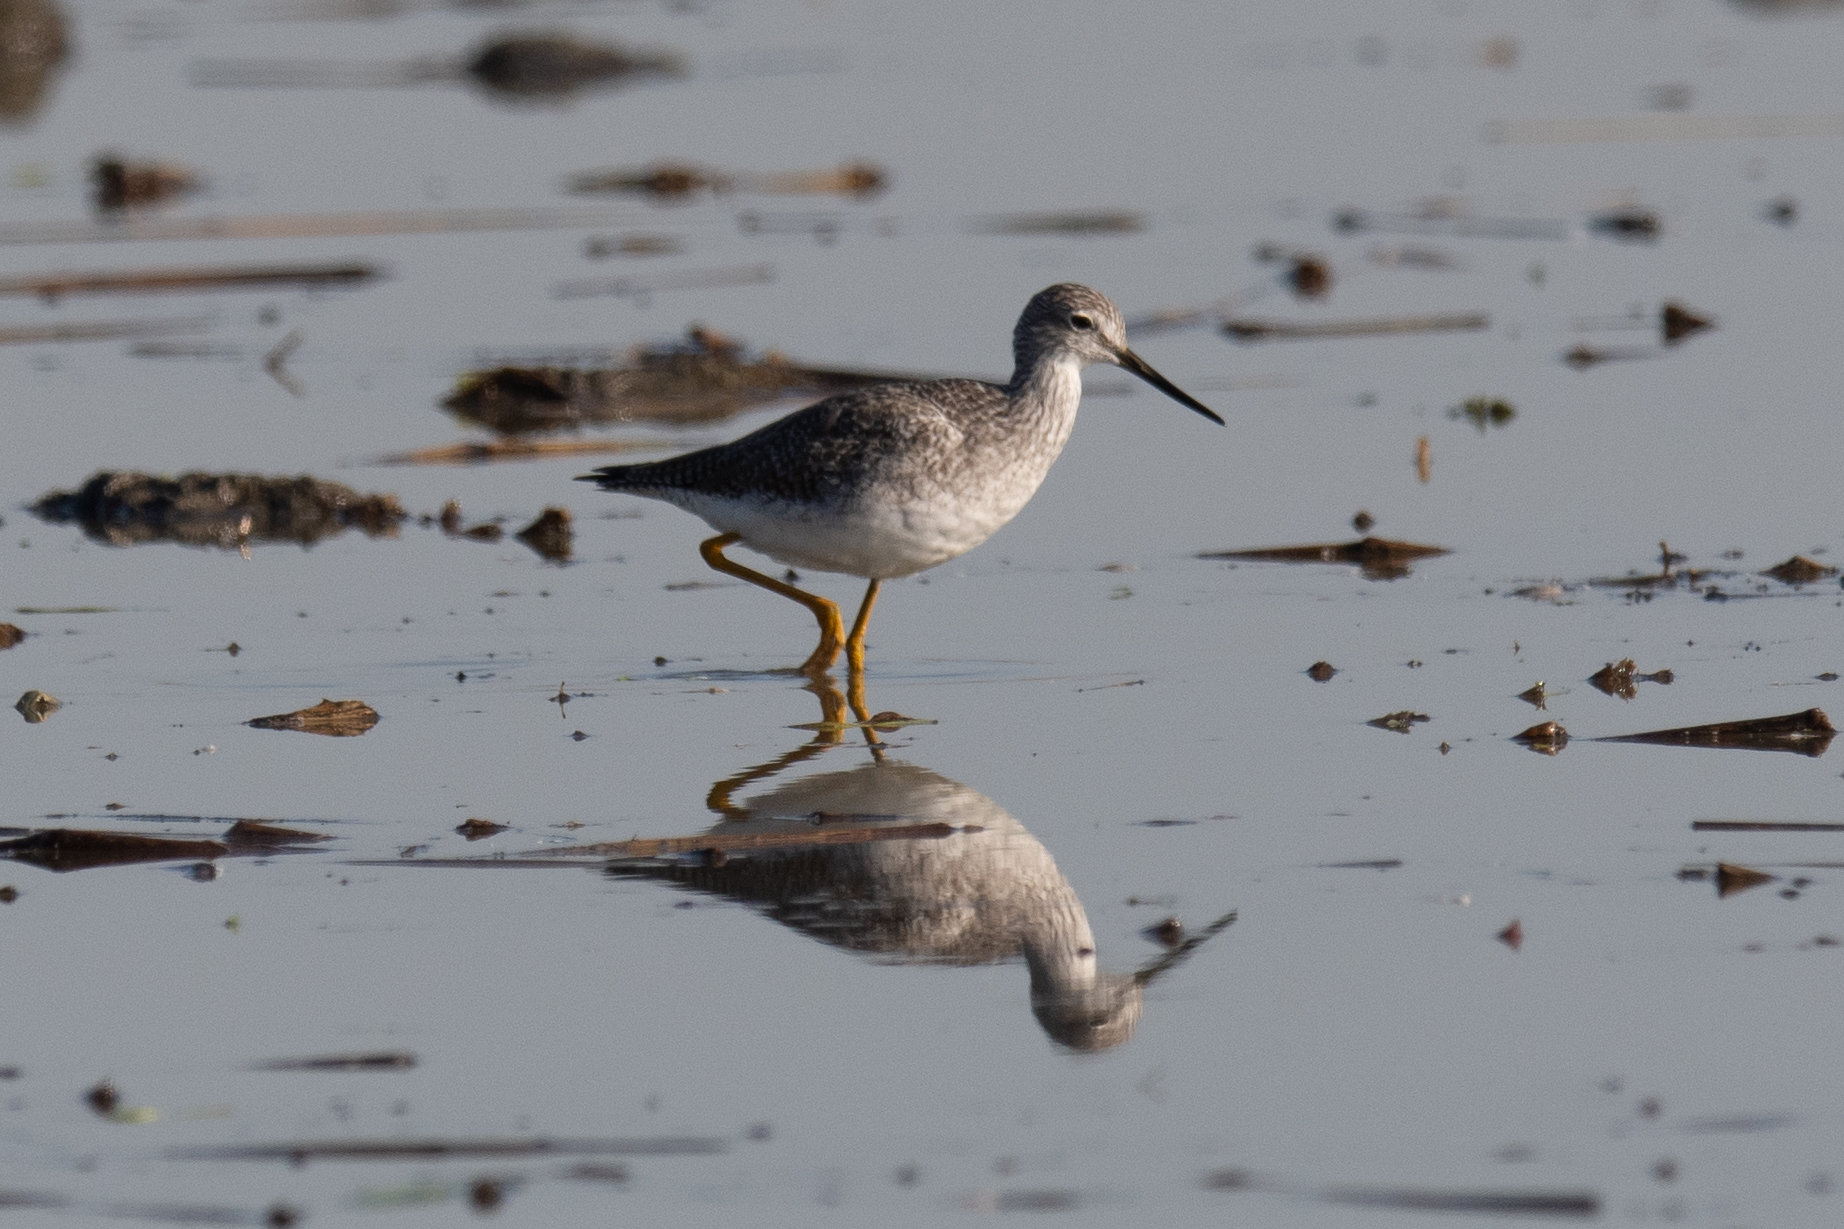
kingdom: Animalia
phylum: Chordata
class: Aves
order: Charadriiformes
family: Scolopacidae
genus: Tringa
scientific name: Tringa melanoleuca
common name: Greater yellowlegs
